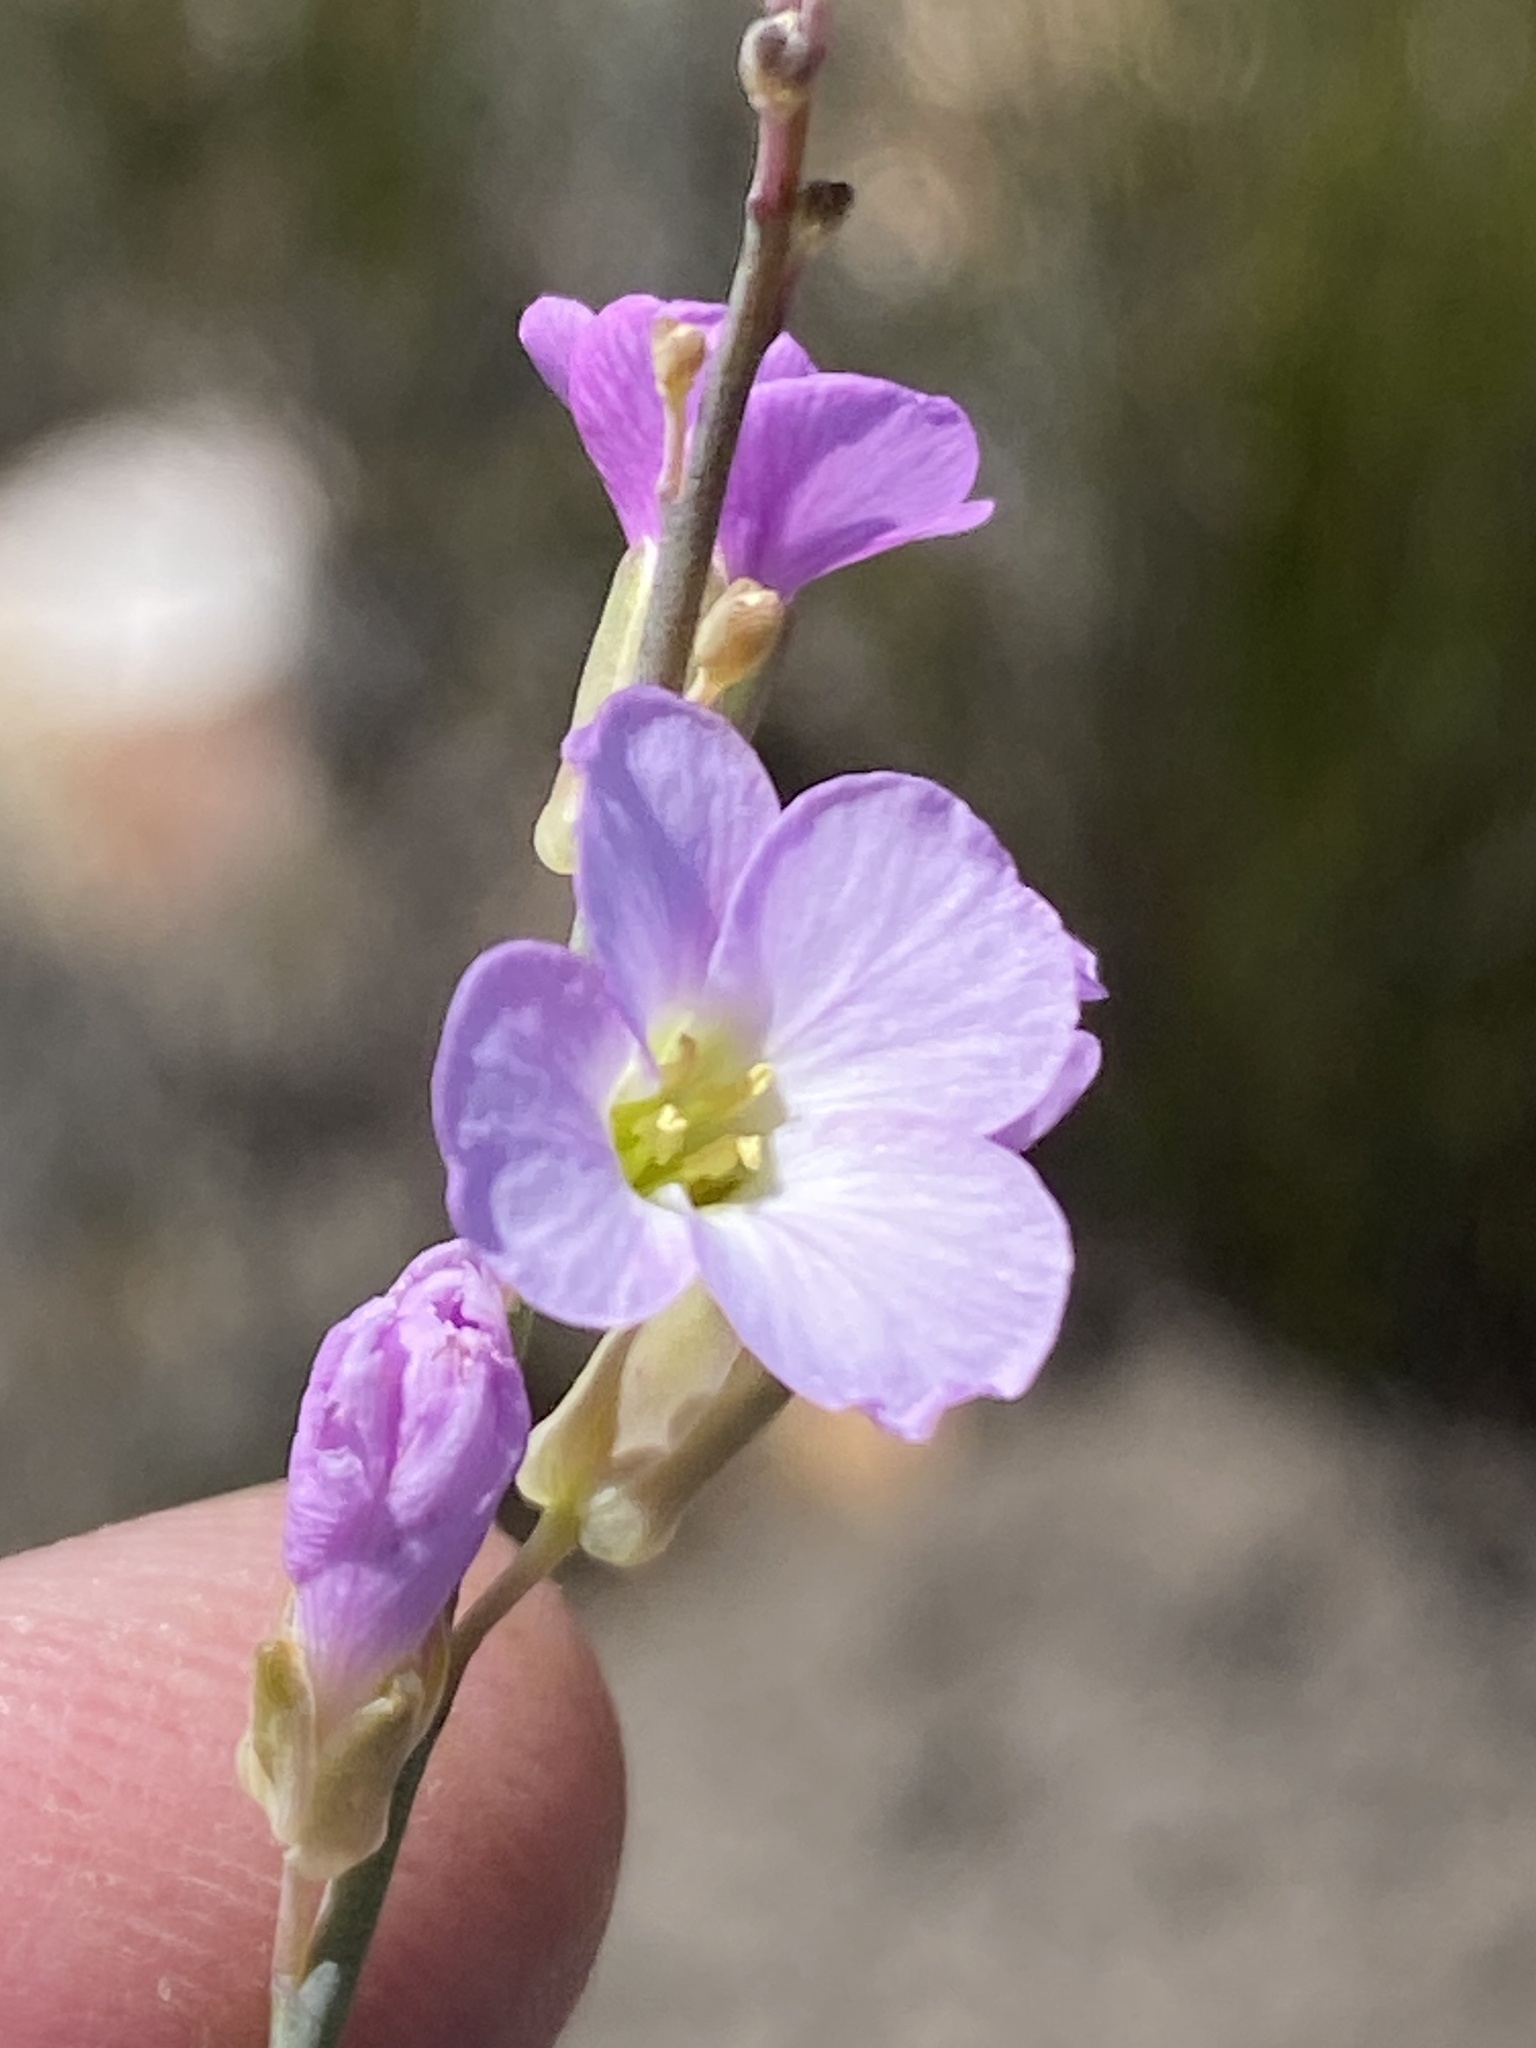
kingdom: Plantae
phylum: Tracheophyta
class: Magnoliopsida
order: Brassicales
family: Brassicaceae
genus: Heliophila
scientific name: Heliophila glauca
